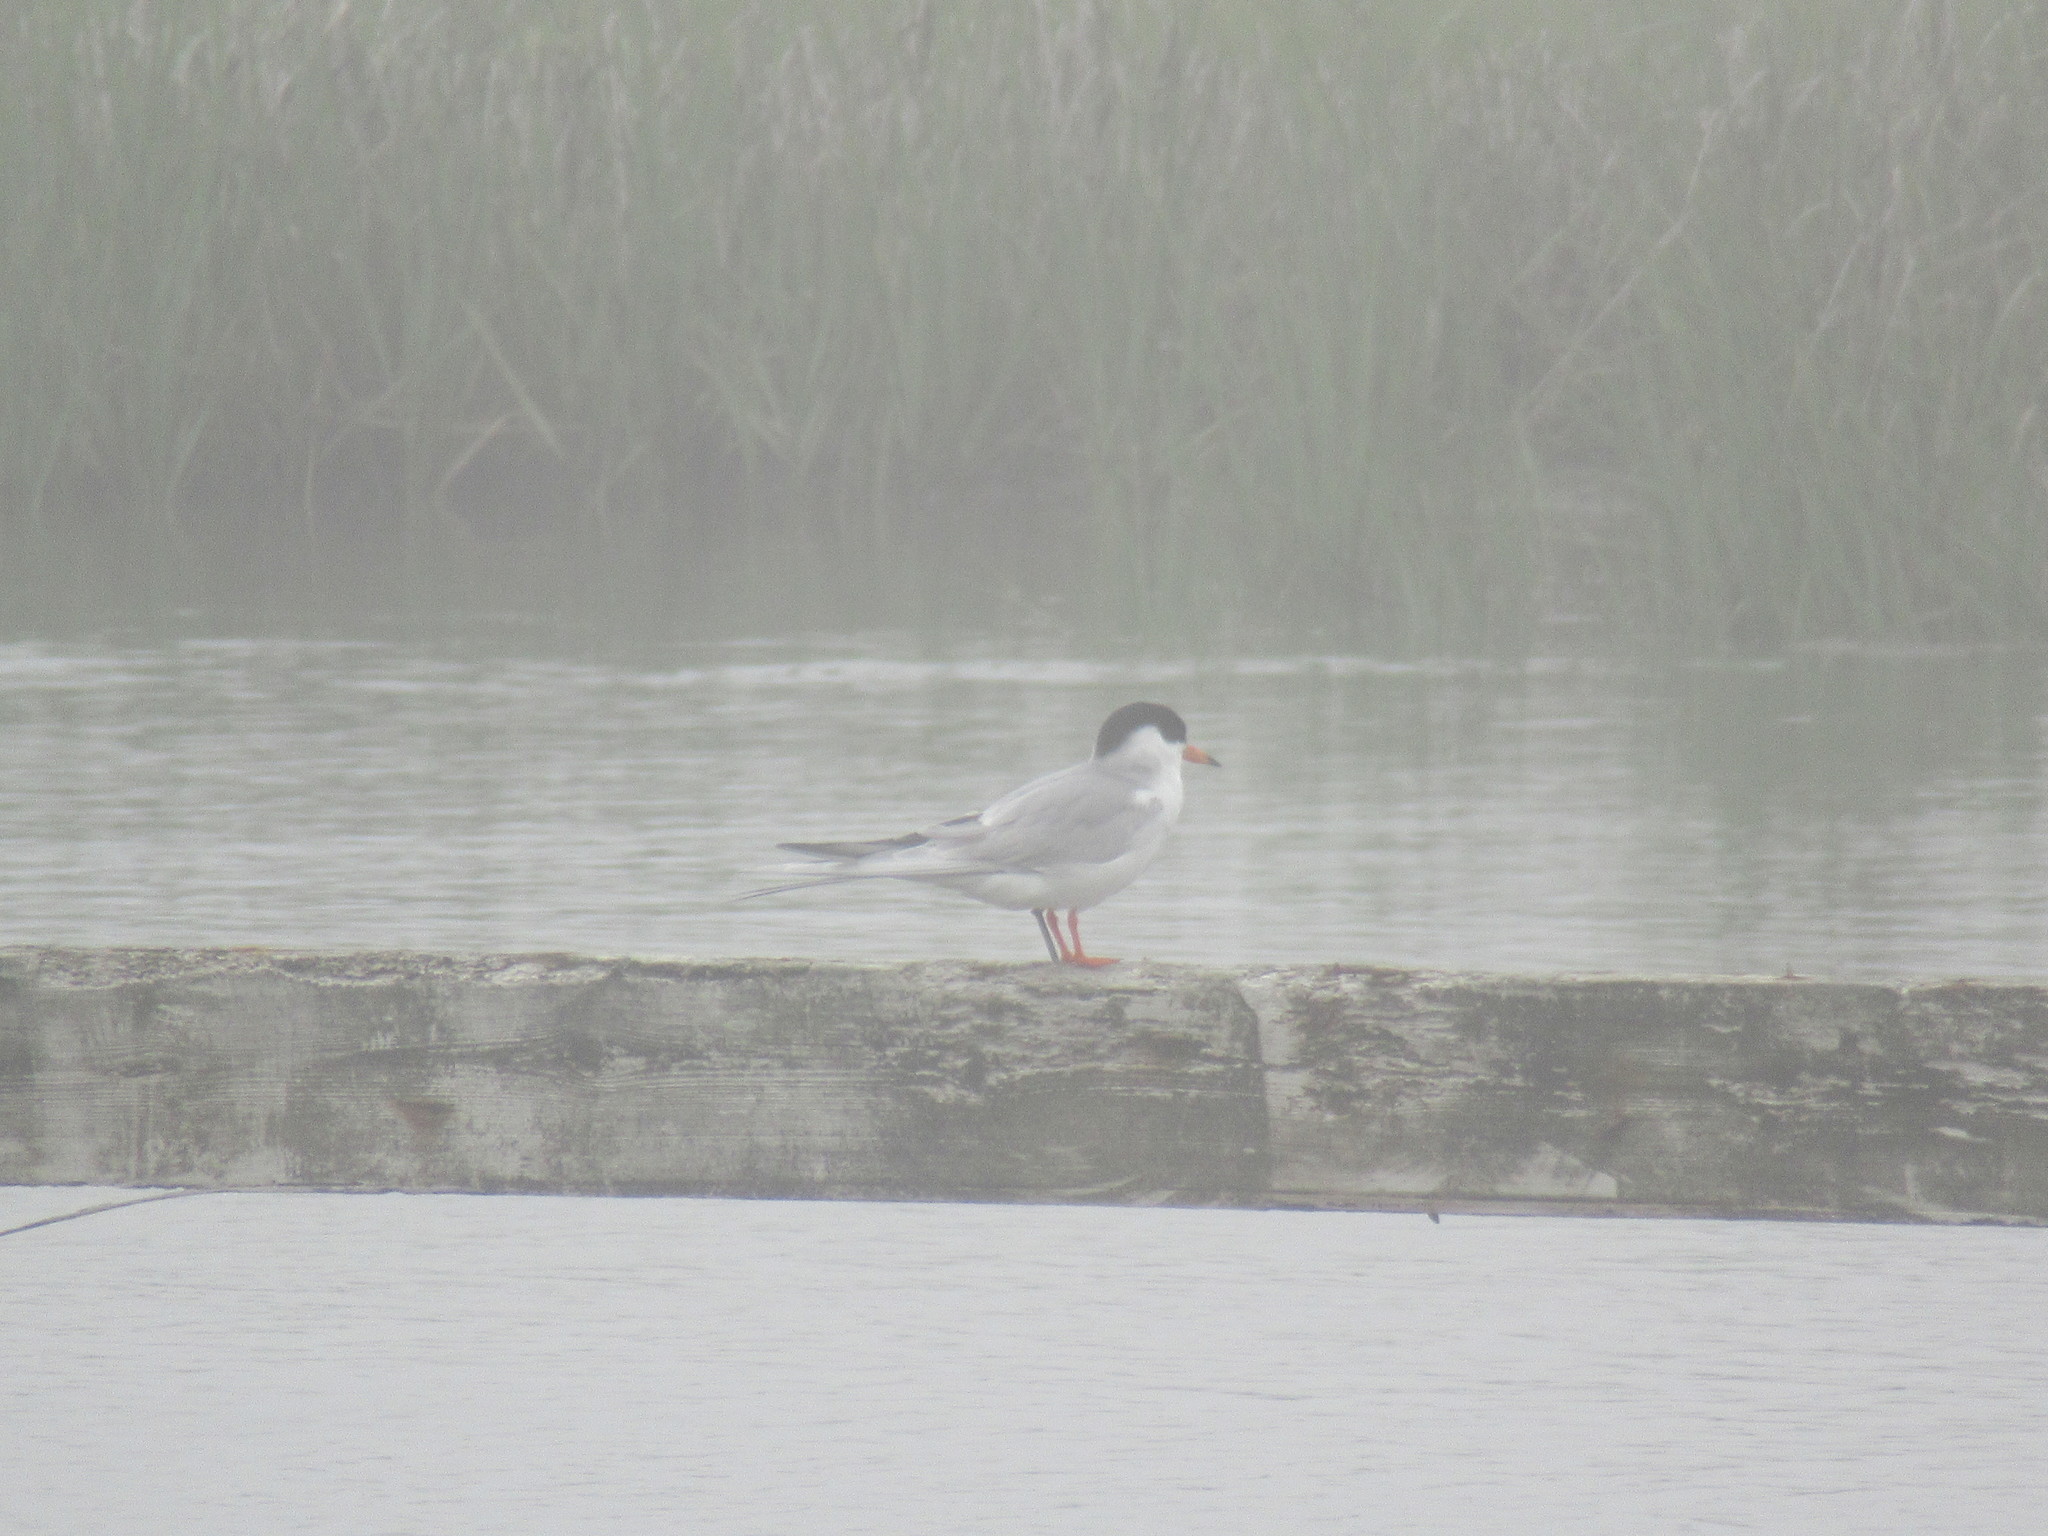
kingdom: Animalia
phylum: Chordata
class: Aves
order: Charadriiformes
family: Laridae
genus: Sterna
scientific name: Sterna forsteri
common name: Forster's tern
